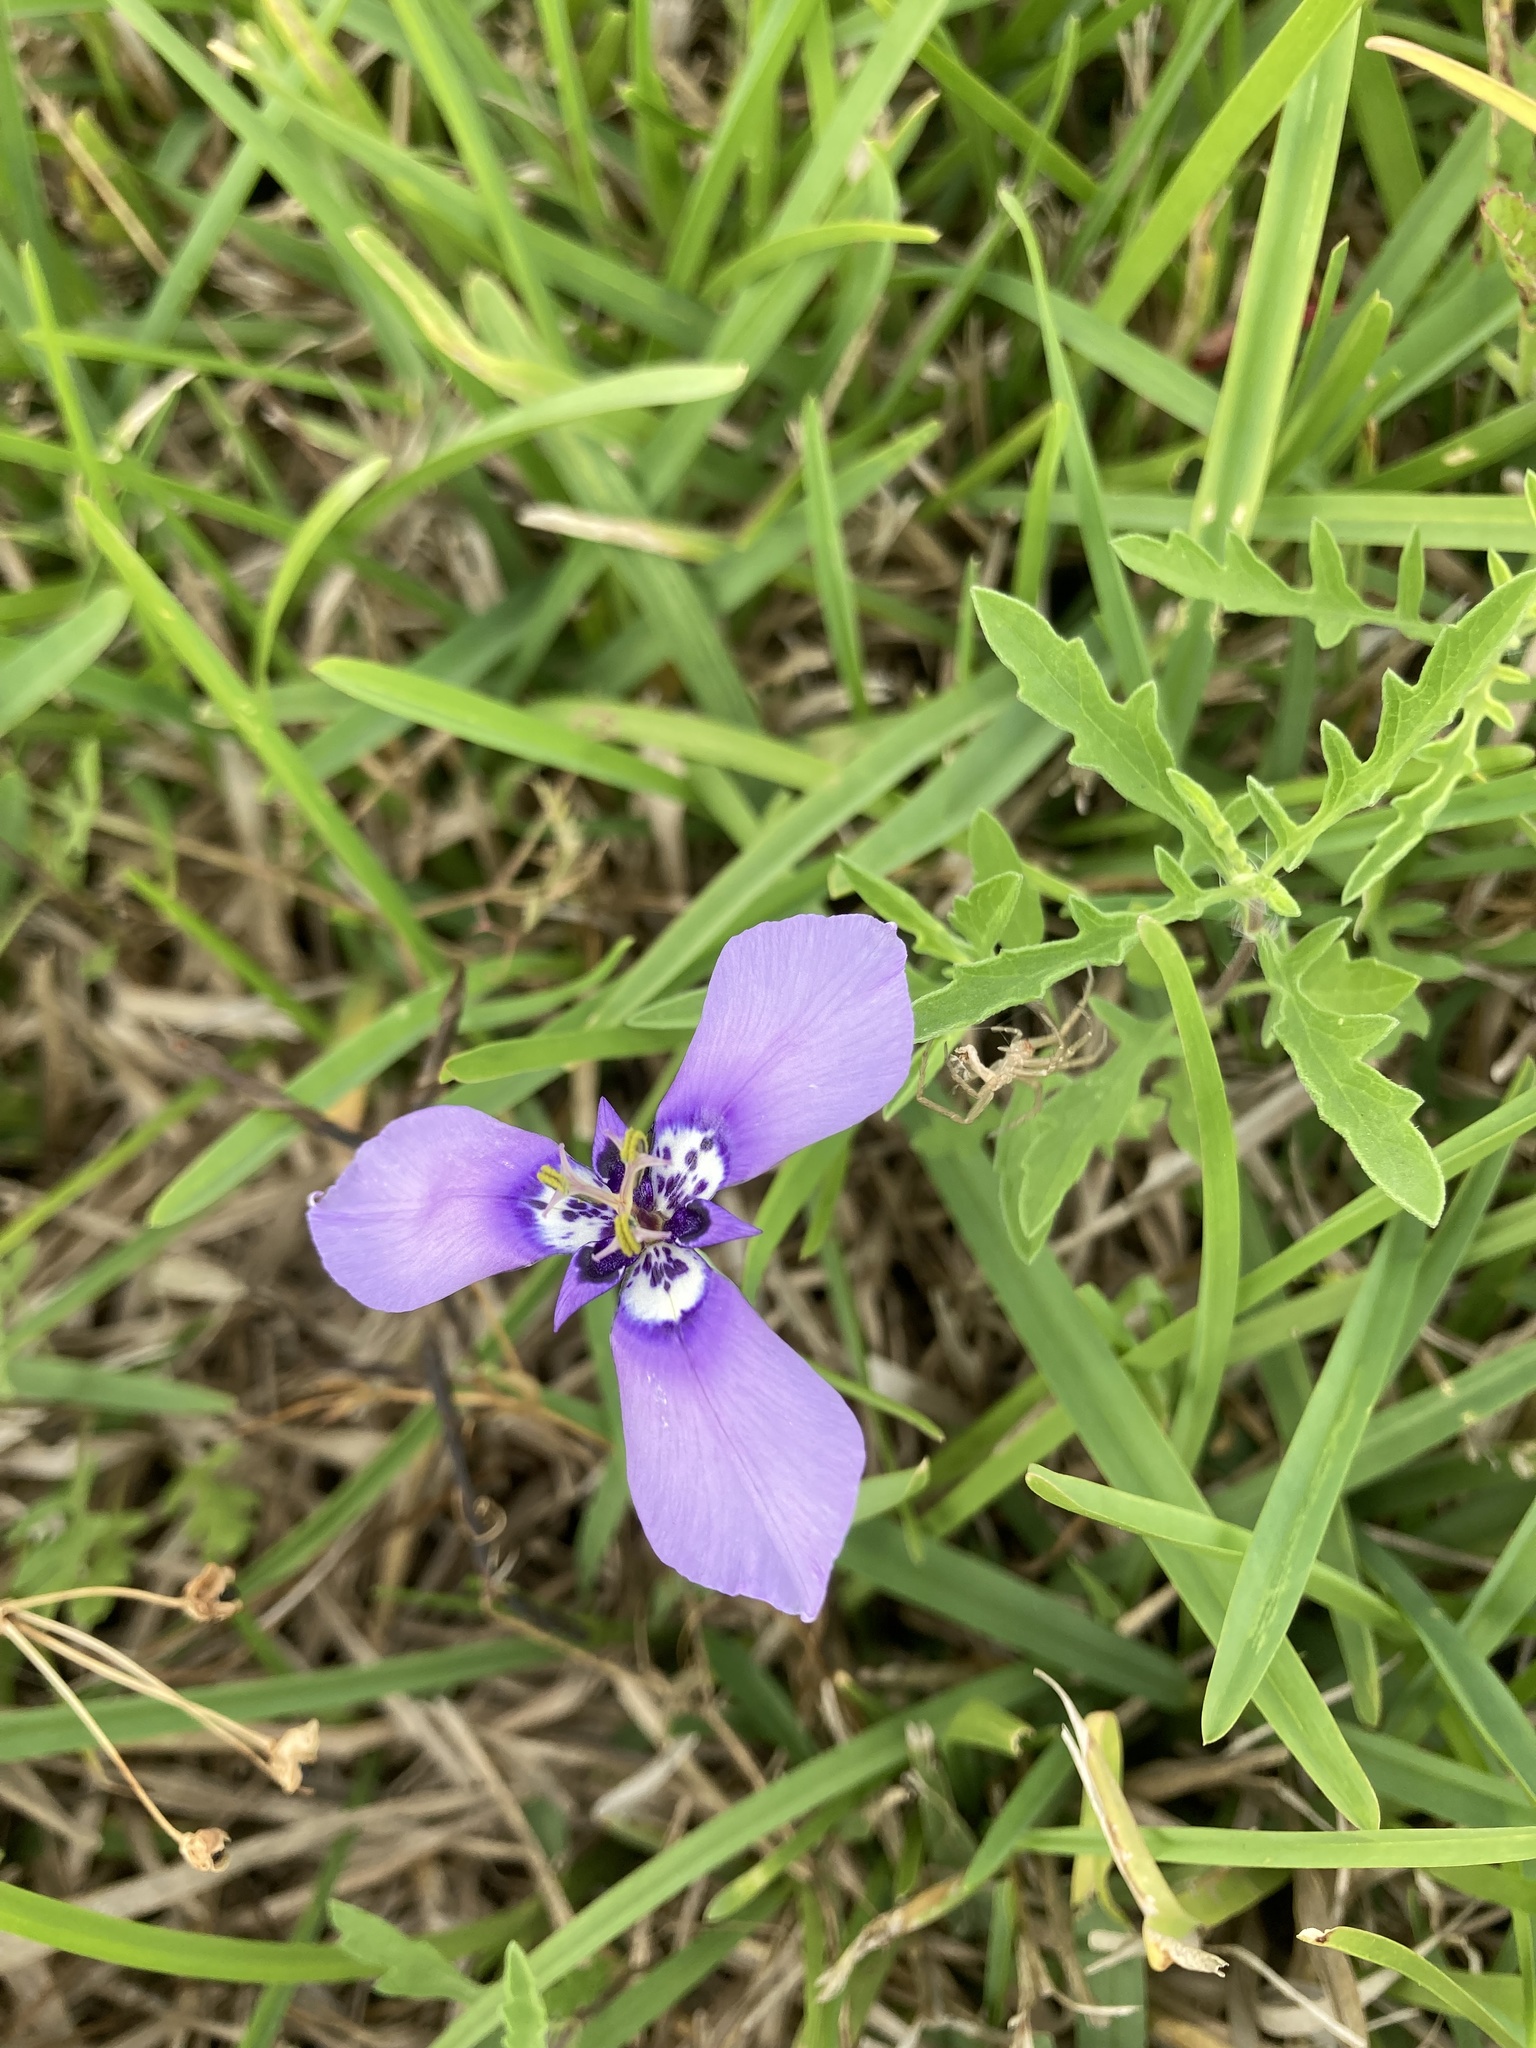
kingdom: Plantae
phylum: Tracheophyta
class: Liliopsida
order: Asparagales
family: Iridaceae
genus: Herbertia
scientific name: Herbertia lahue
